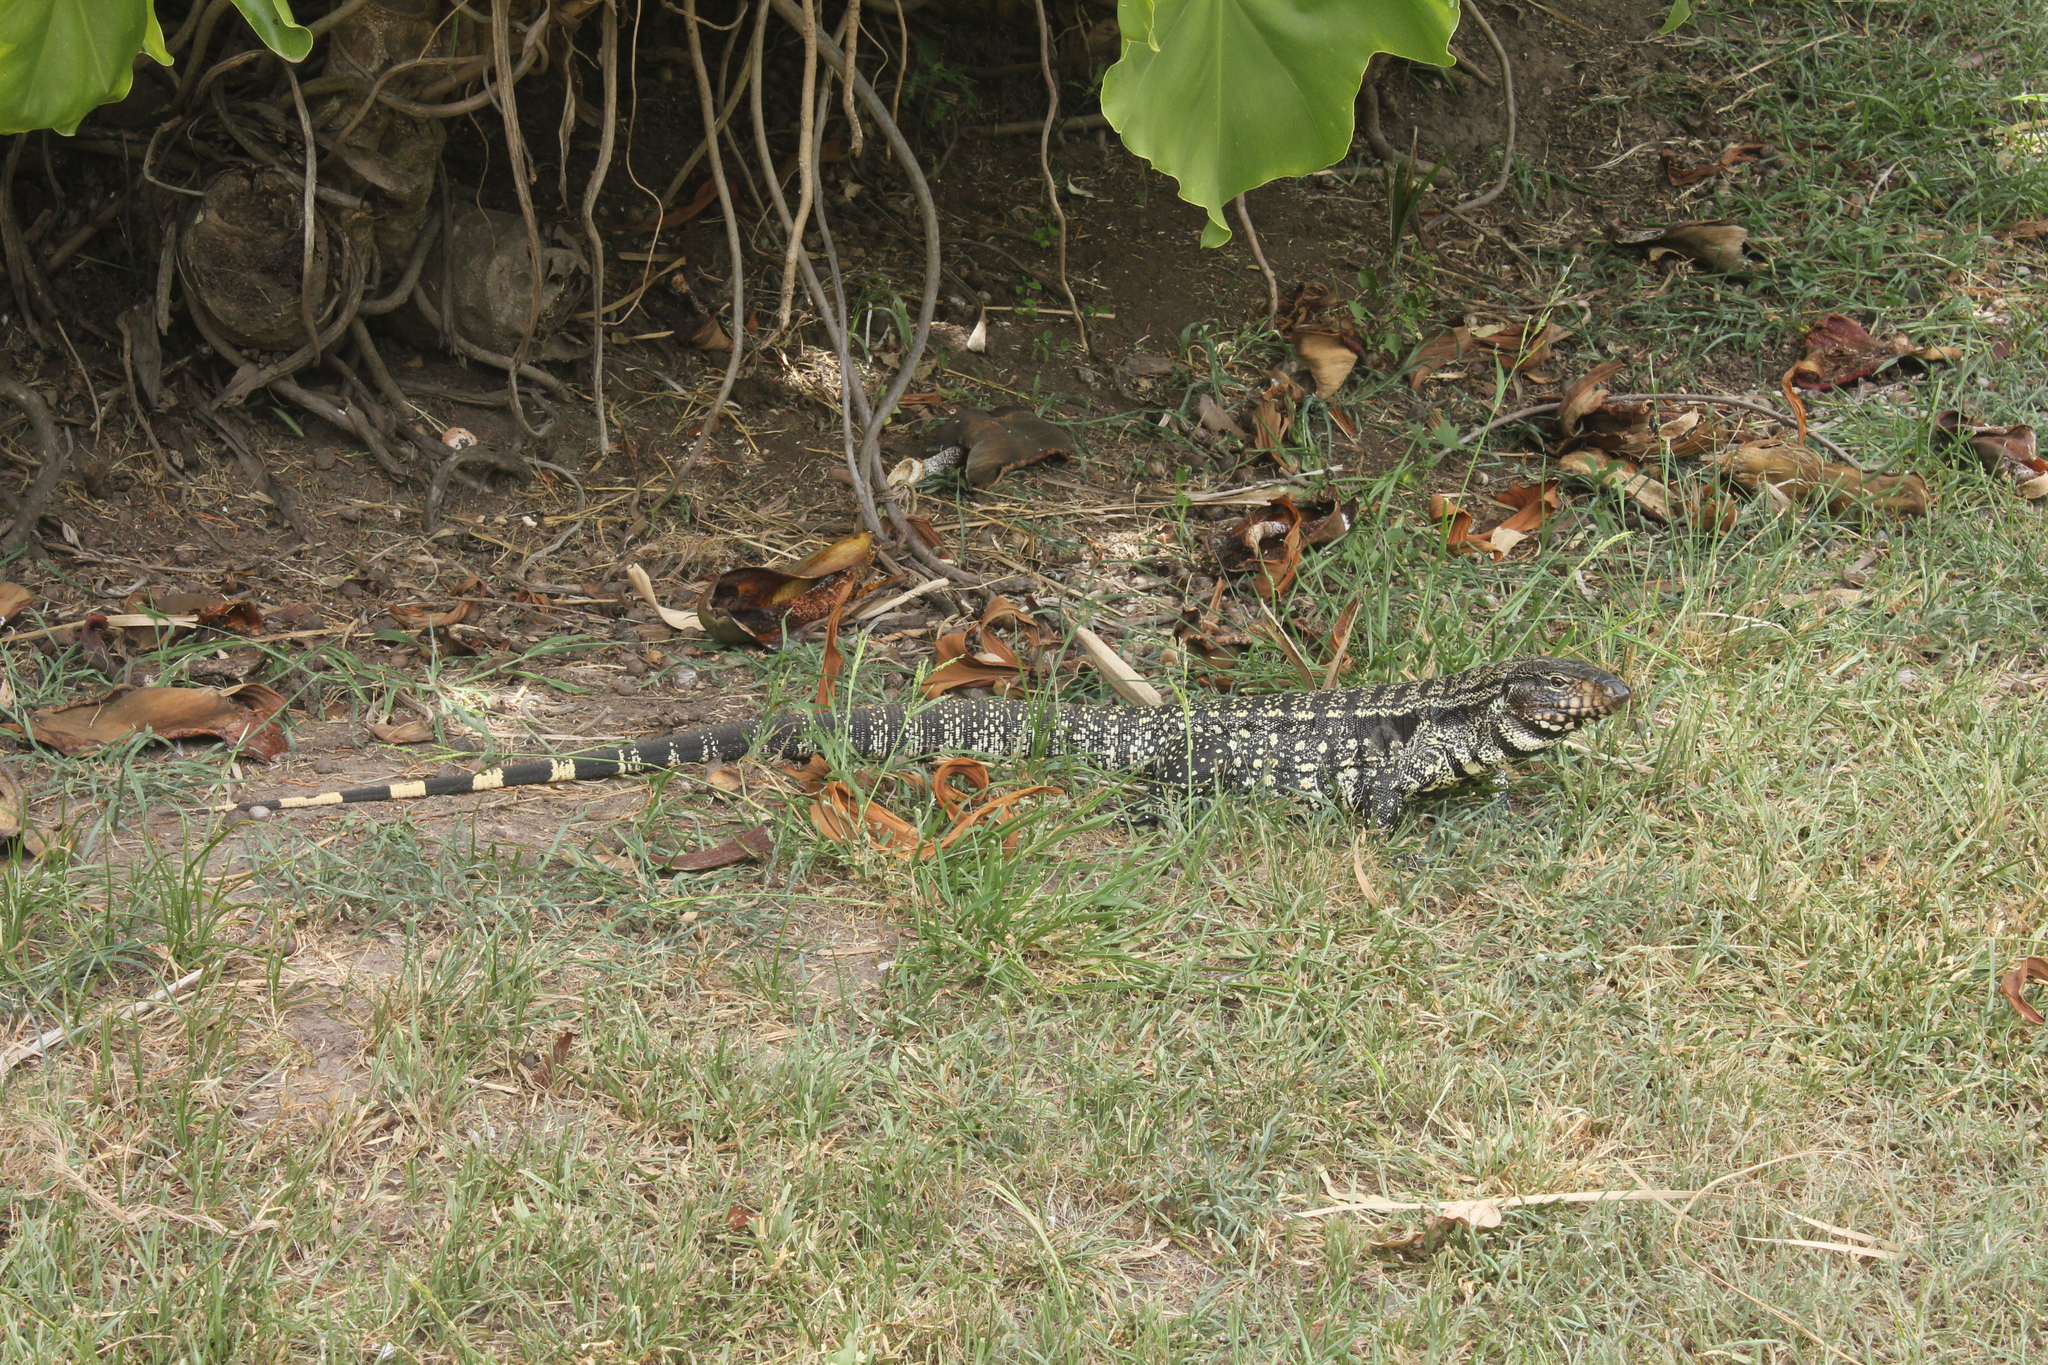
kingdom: Animalia
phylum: Chordata
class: Squamata
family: Teiidae
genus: Salvator
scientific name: Salvator merianae
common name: Argentine black and white tegu
